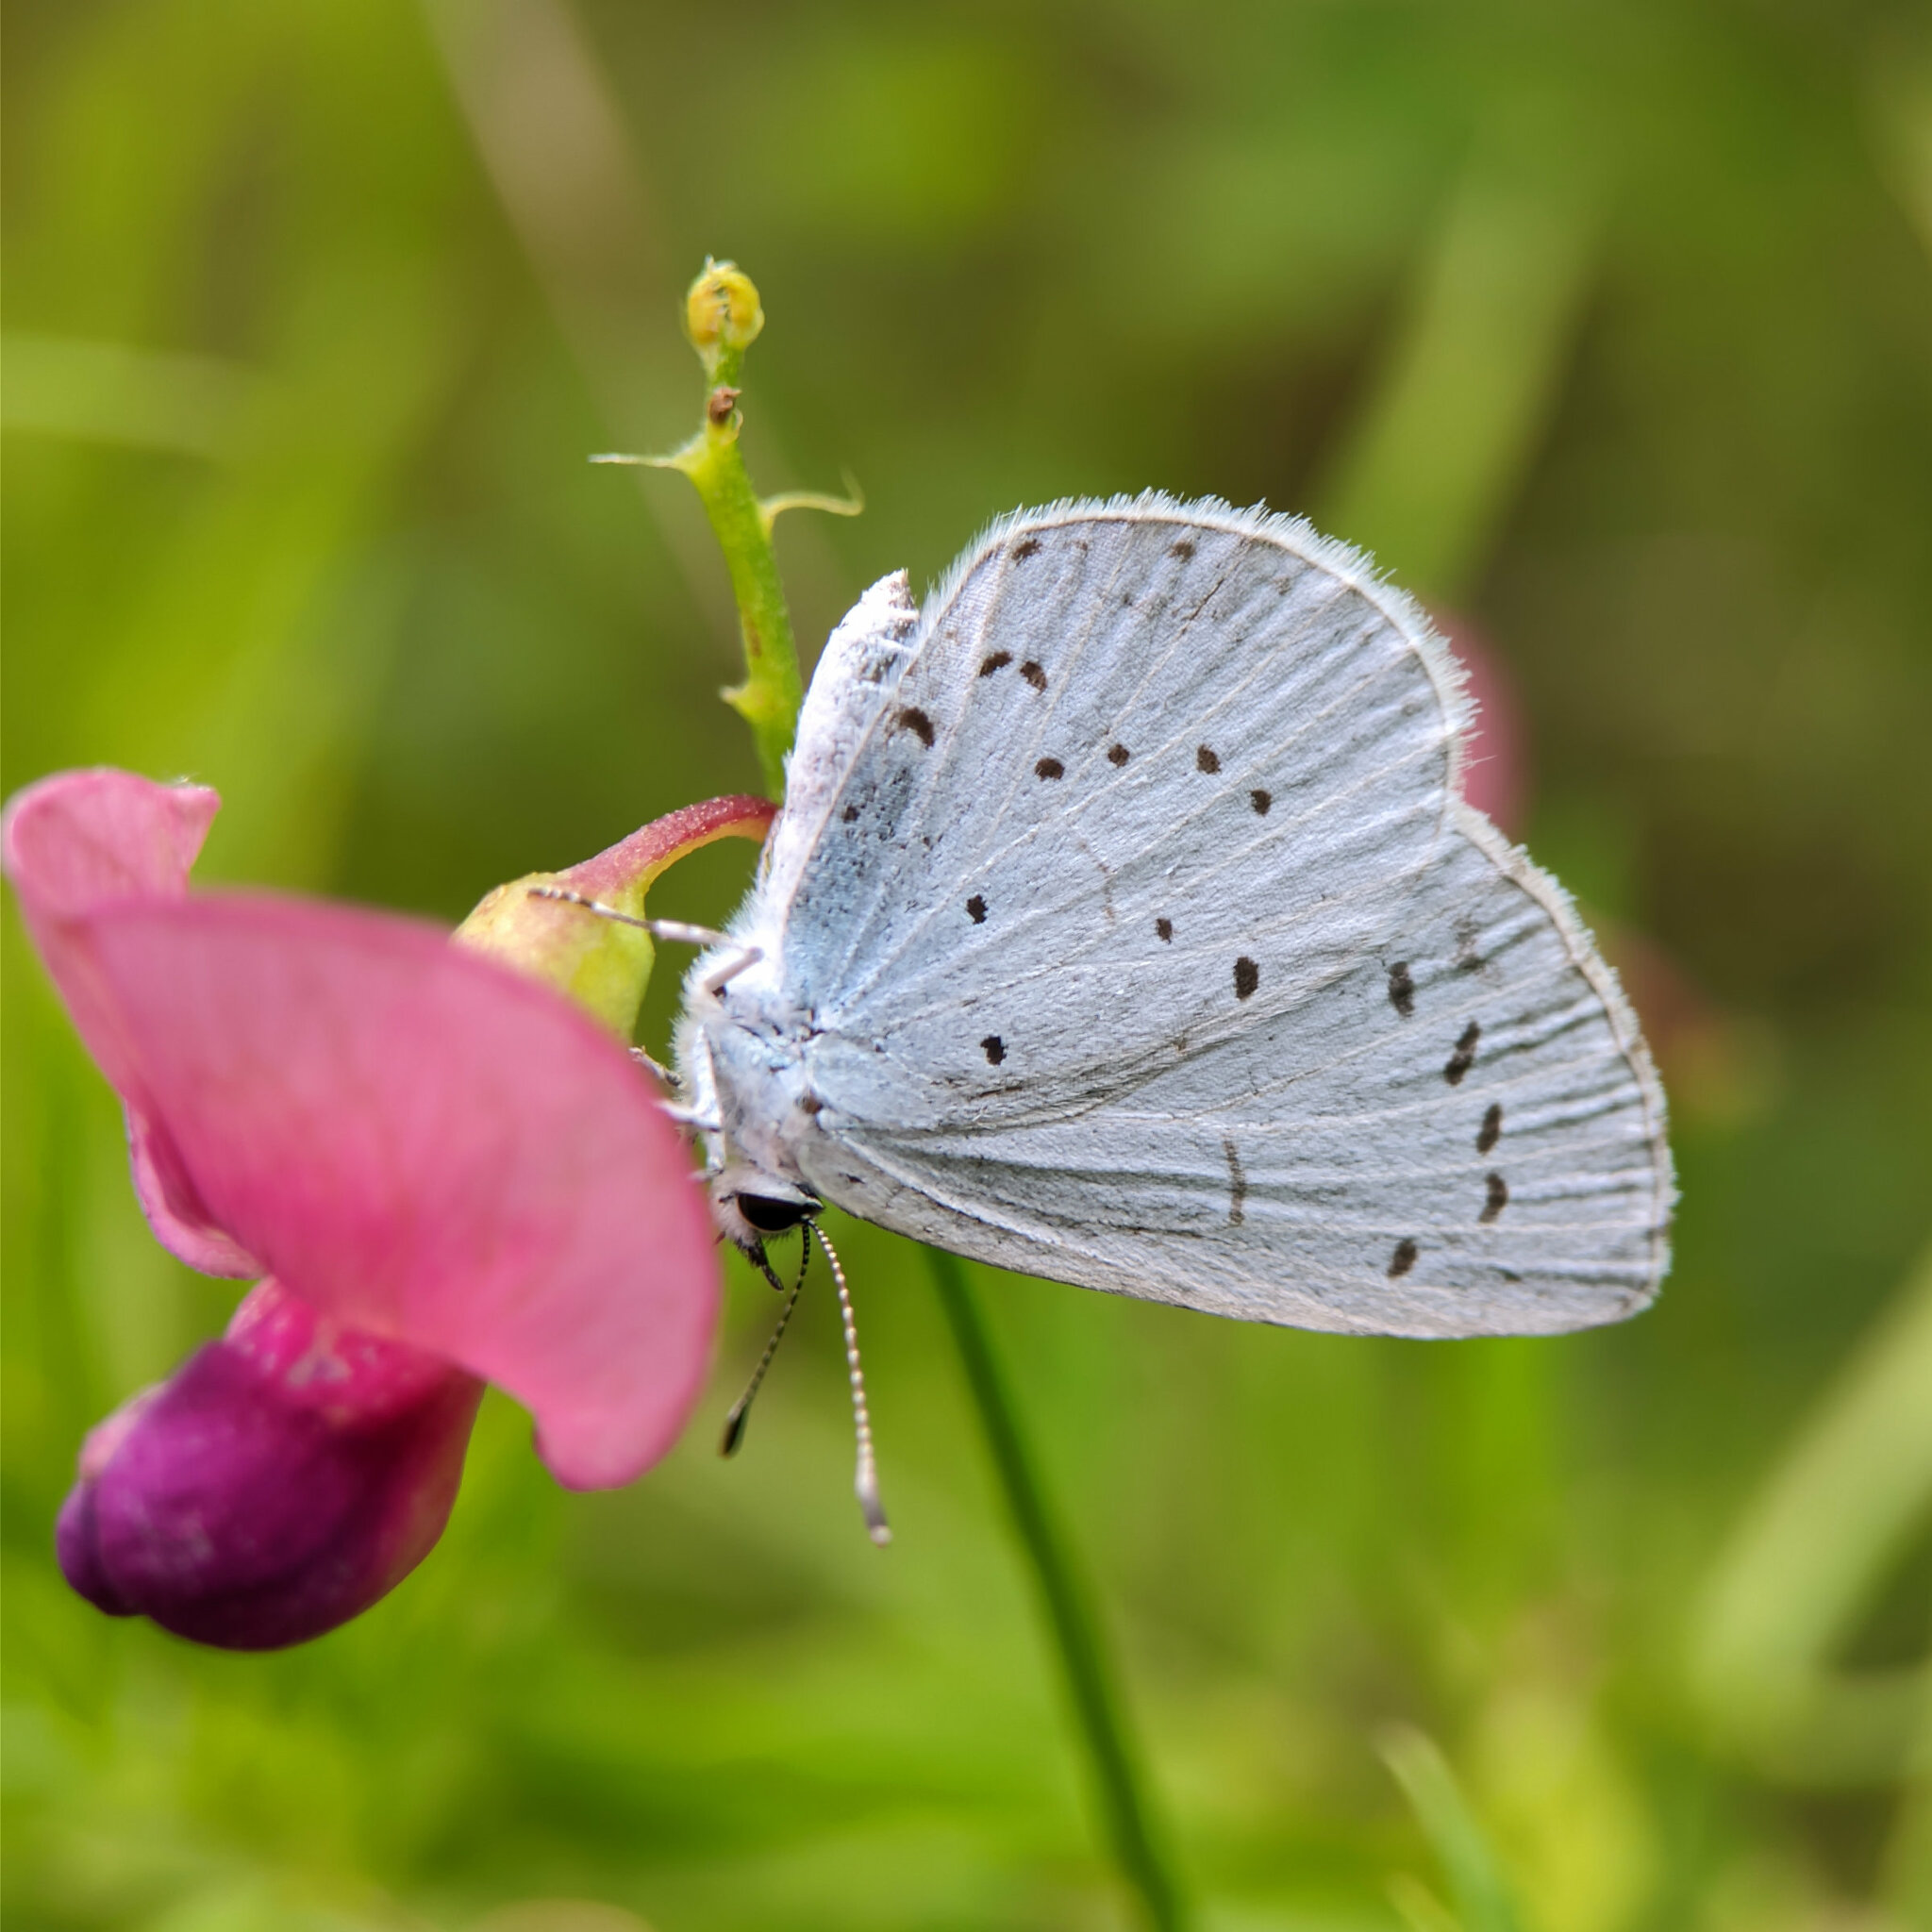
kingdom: Animalia
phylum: Arthropoda
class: Insecta
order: Lepidoptera
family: Lycaenidae
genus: Celastrina
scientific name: Celastrina argiolus
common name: Holly blue
